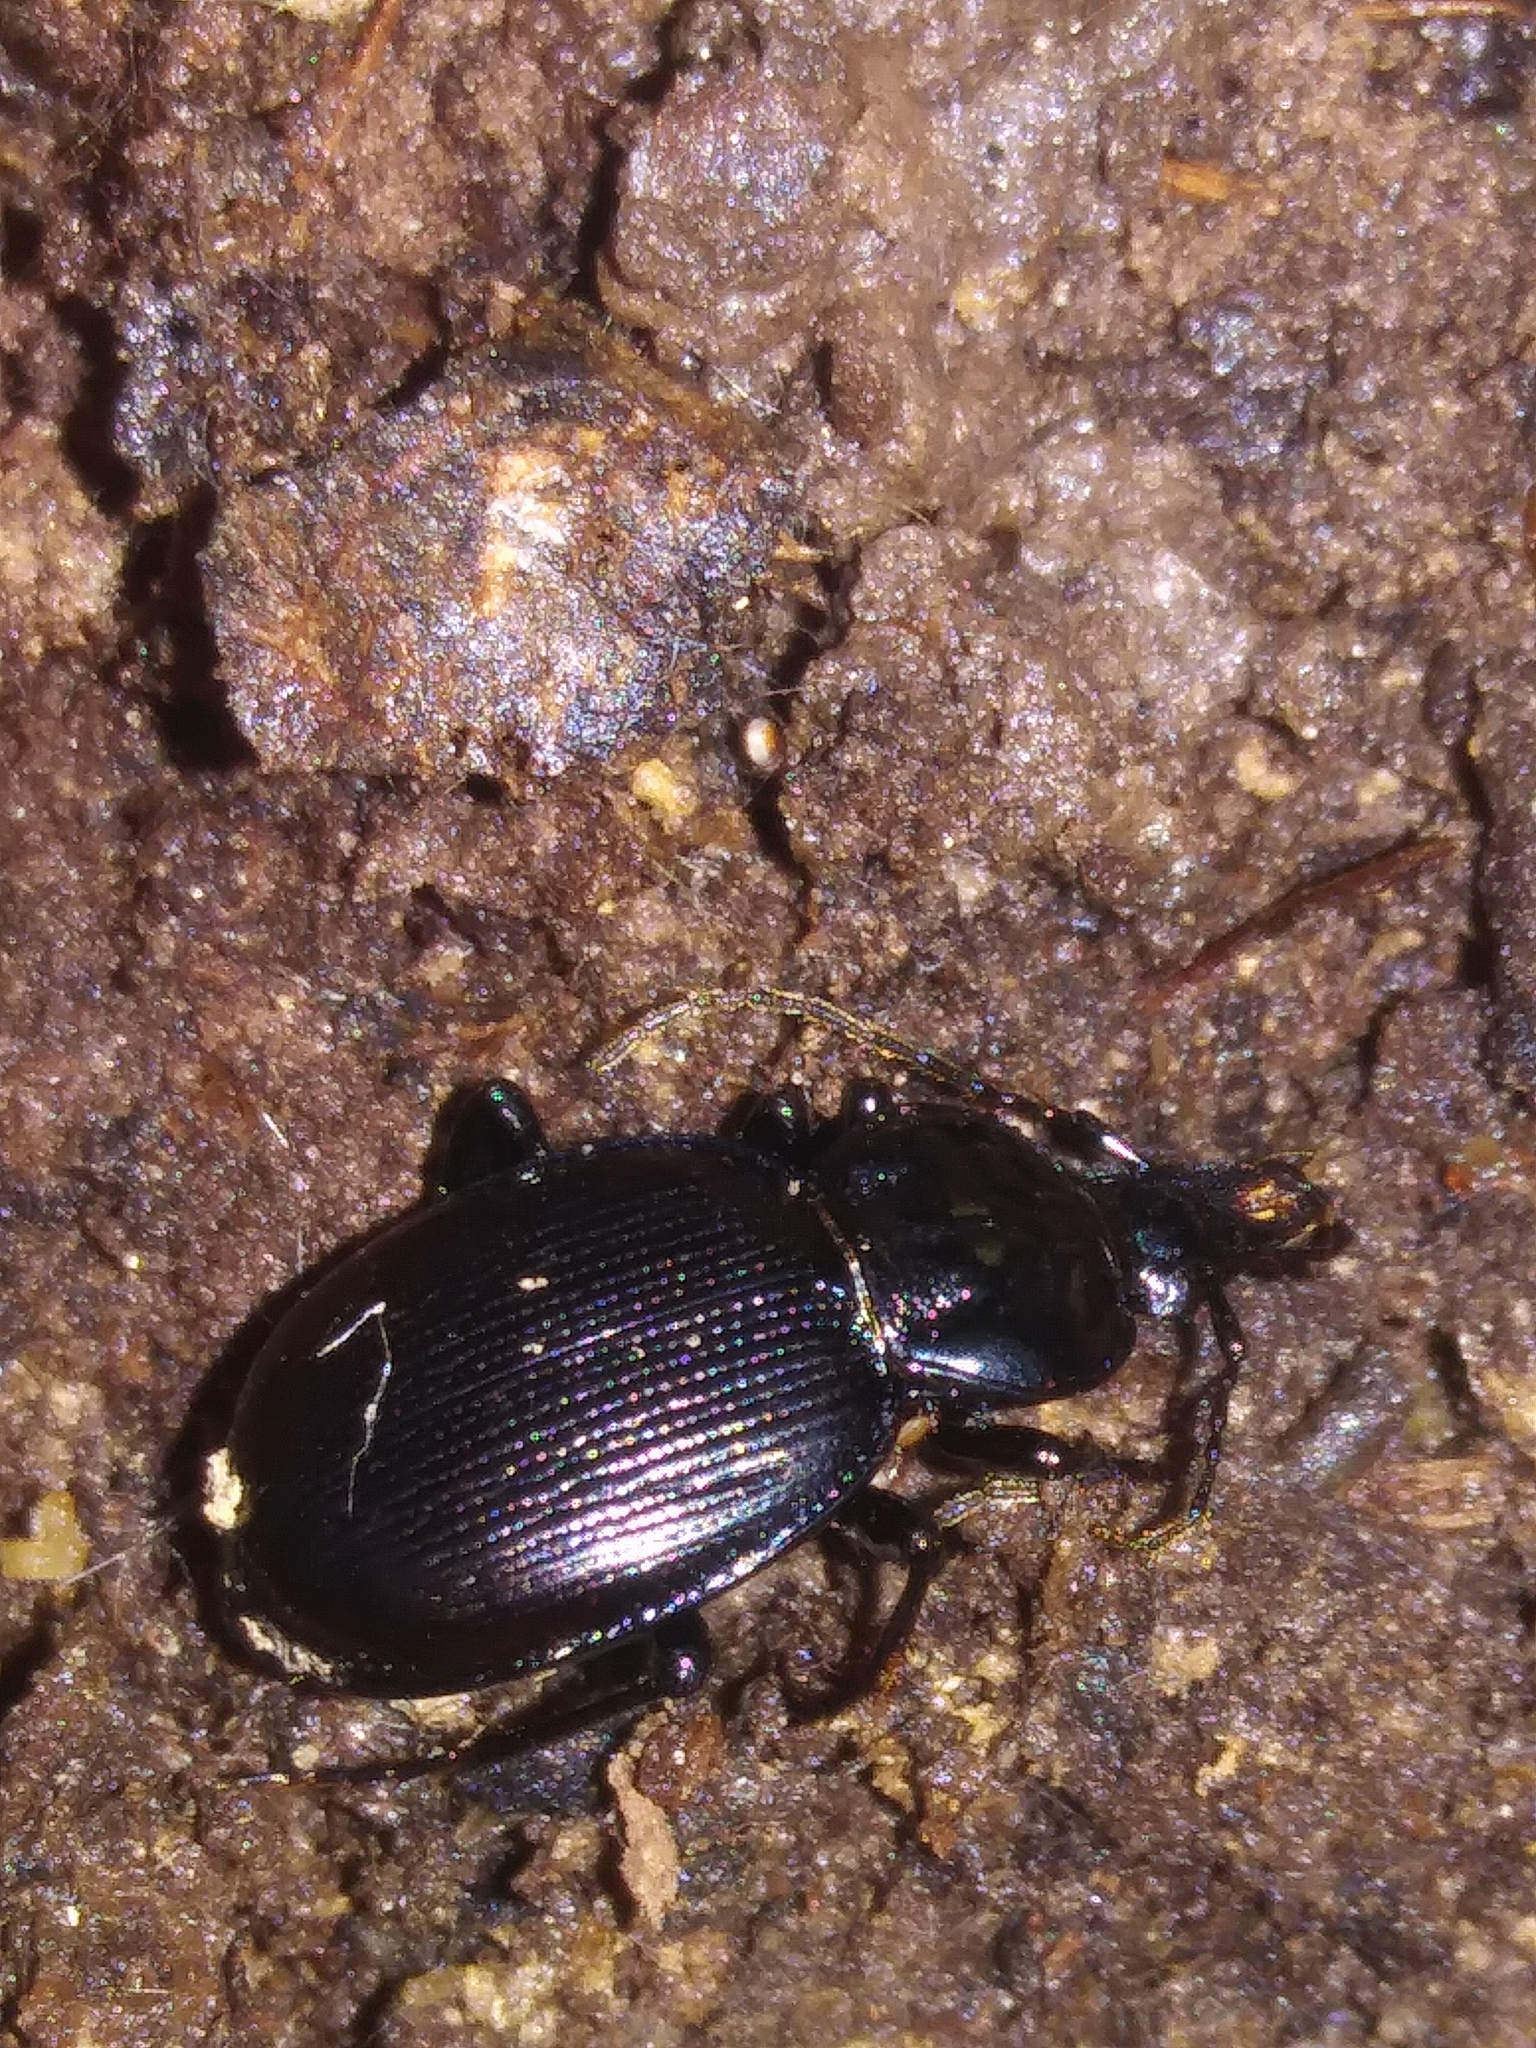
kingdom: Animalia
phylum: Arthropoda
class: Insecta
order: Coleoptera
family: Carabidae
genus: Sphaeroderus
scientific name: Sphaeroderus stenostomus
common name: Small snail-eating ground beetle
